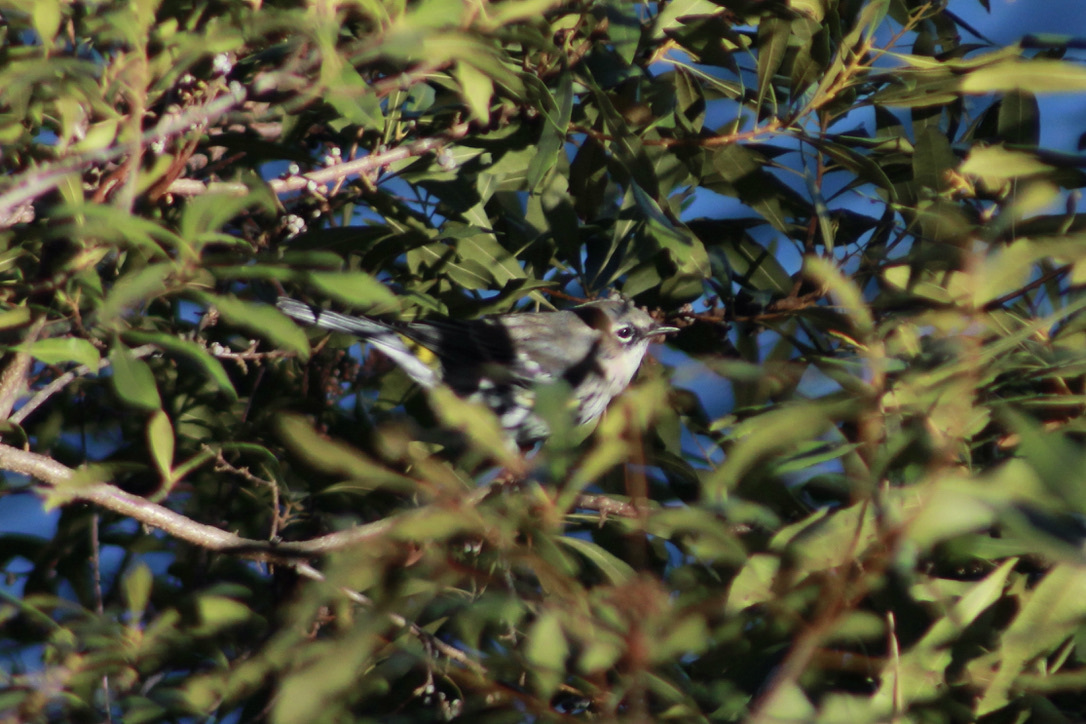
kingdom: Animalia
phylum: Chordata
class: Aves
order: Passeriformes
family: Parulidae
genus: Setophaga
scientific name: Setophaga coronata
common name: Myrtle warbler
